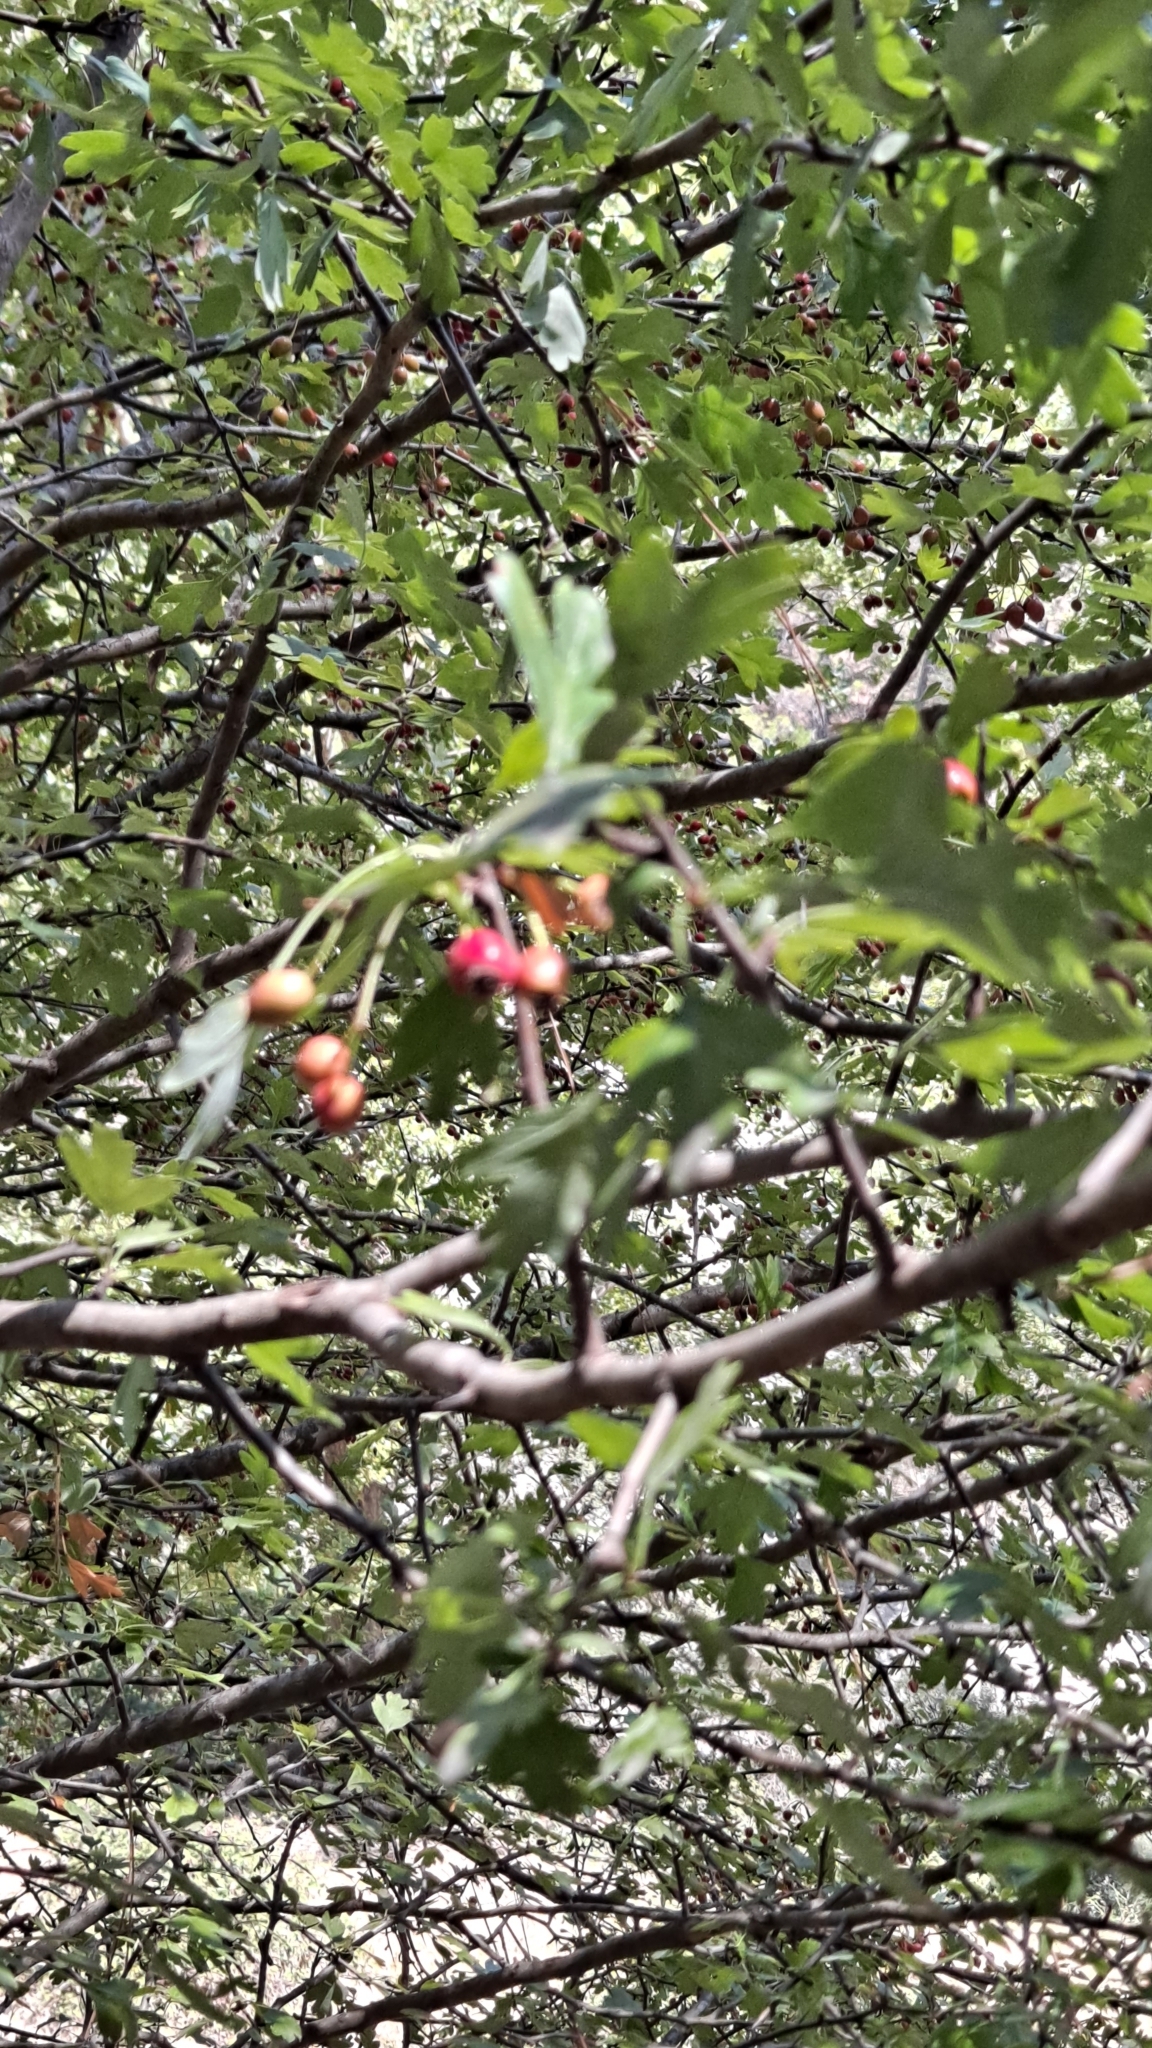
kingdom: Plantae
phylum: Tracheophyta
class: Magnoliopsida
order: Rosales
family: Rosaceae
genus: Crataegus
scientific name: Crataegus monogyna
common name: Hawthorn
